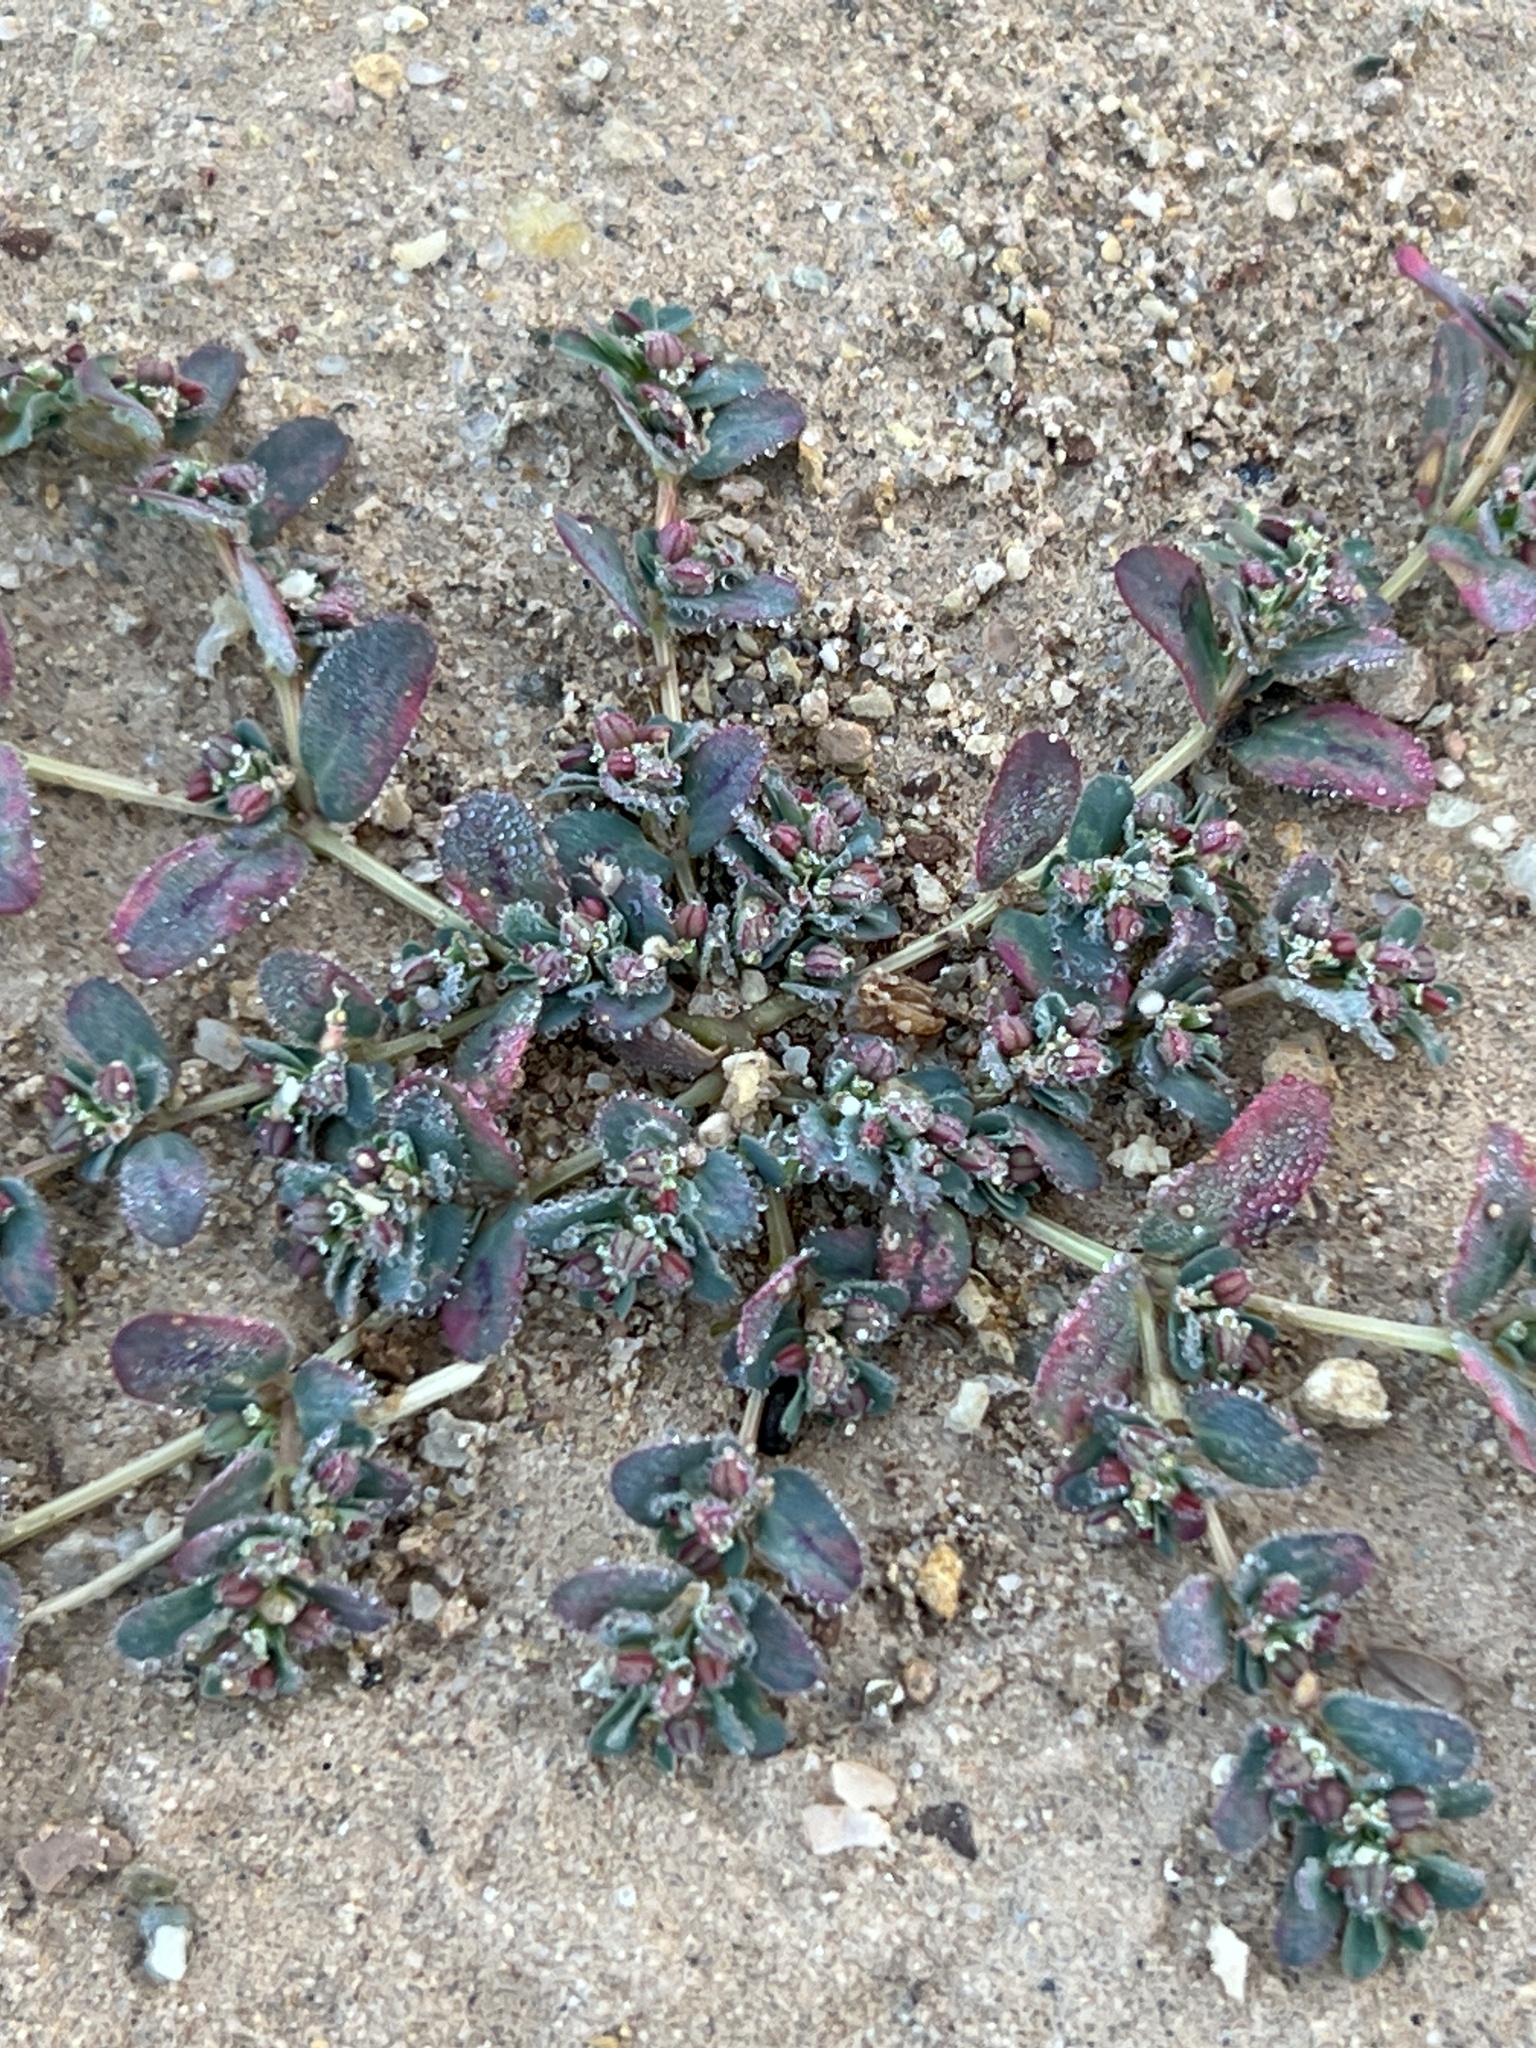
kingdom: Plantae
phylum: Tracheophyta
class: Magnoliopsida
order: Malpighiales
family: Euphorbiaceae
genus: Euphorbia
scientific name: Euphorbia serpillifolia
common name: Thyme-leaf spurge
